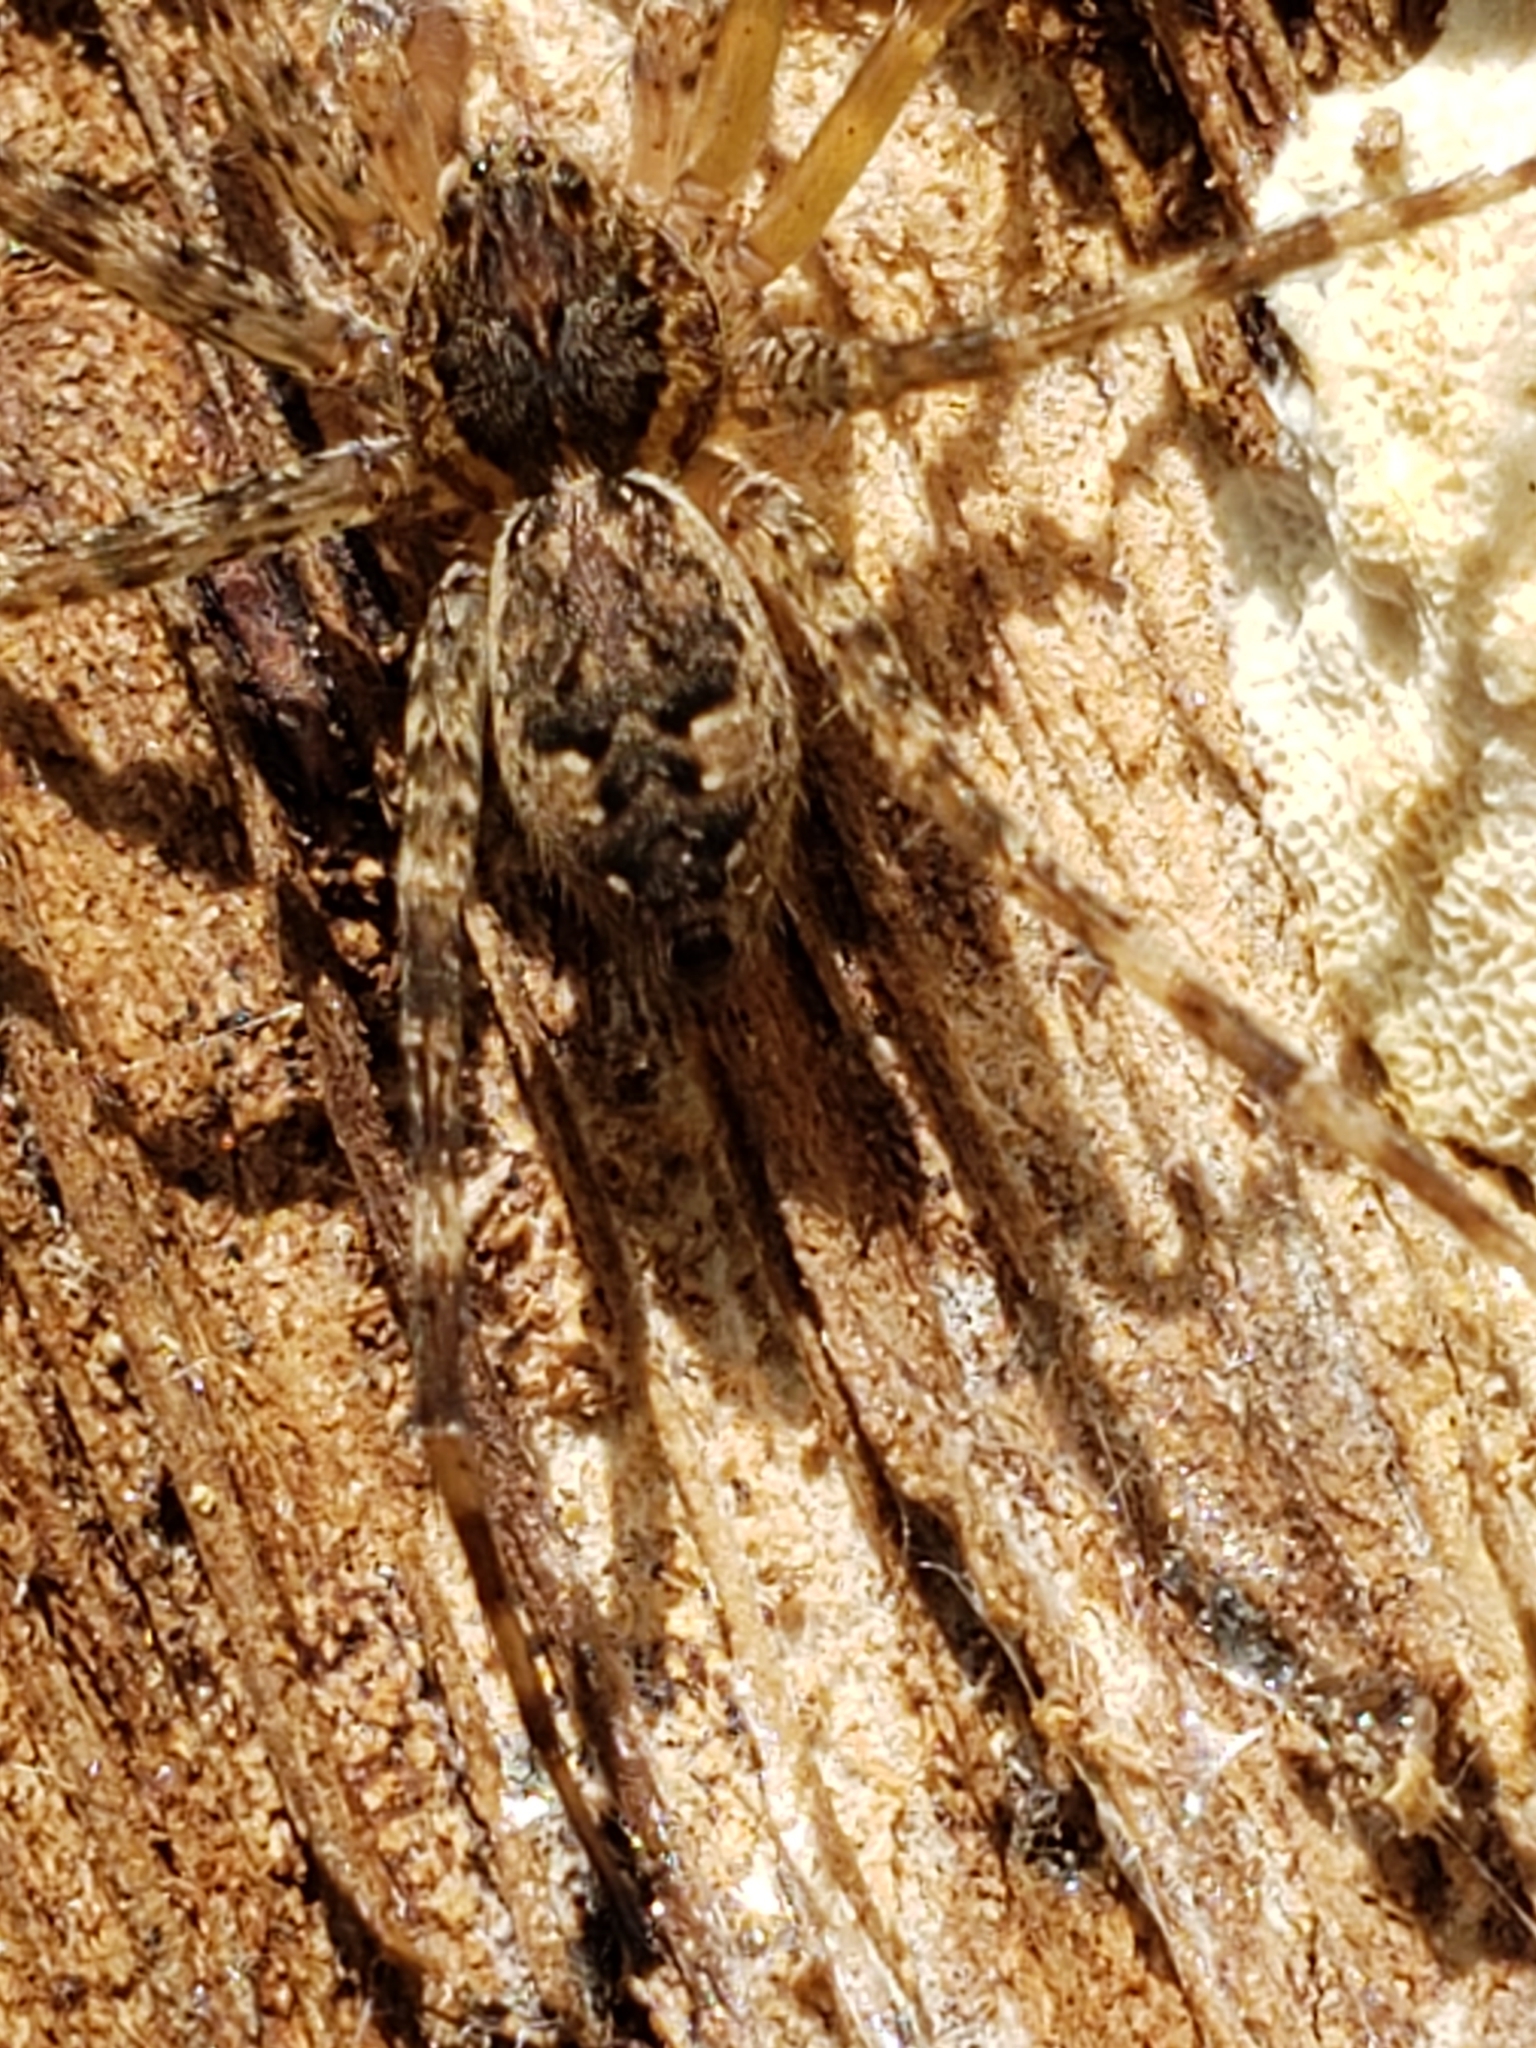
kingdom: Animalia
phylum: Arthropoda
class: Arachnida
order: Araneae
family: Pisauridae
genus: Dolomedes
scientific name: Dolomedes tenebrosus
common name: Dark fishing spider
